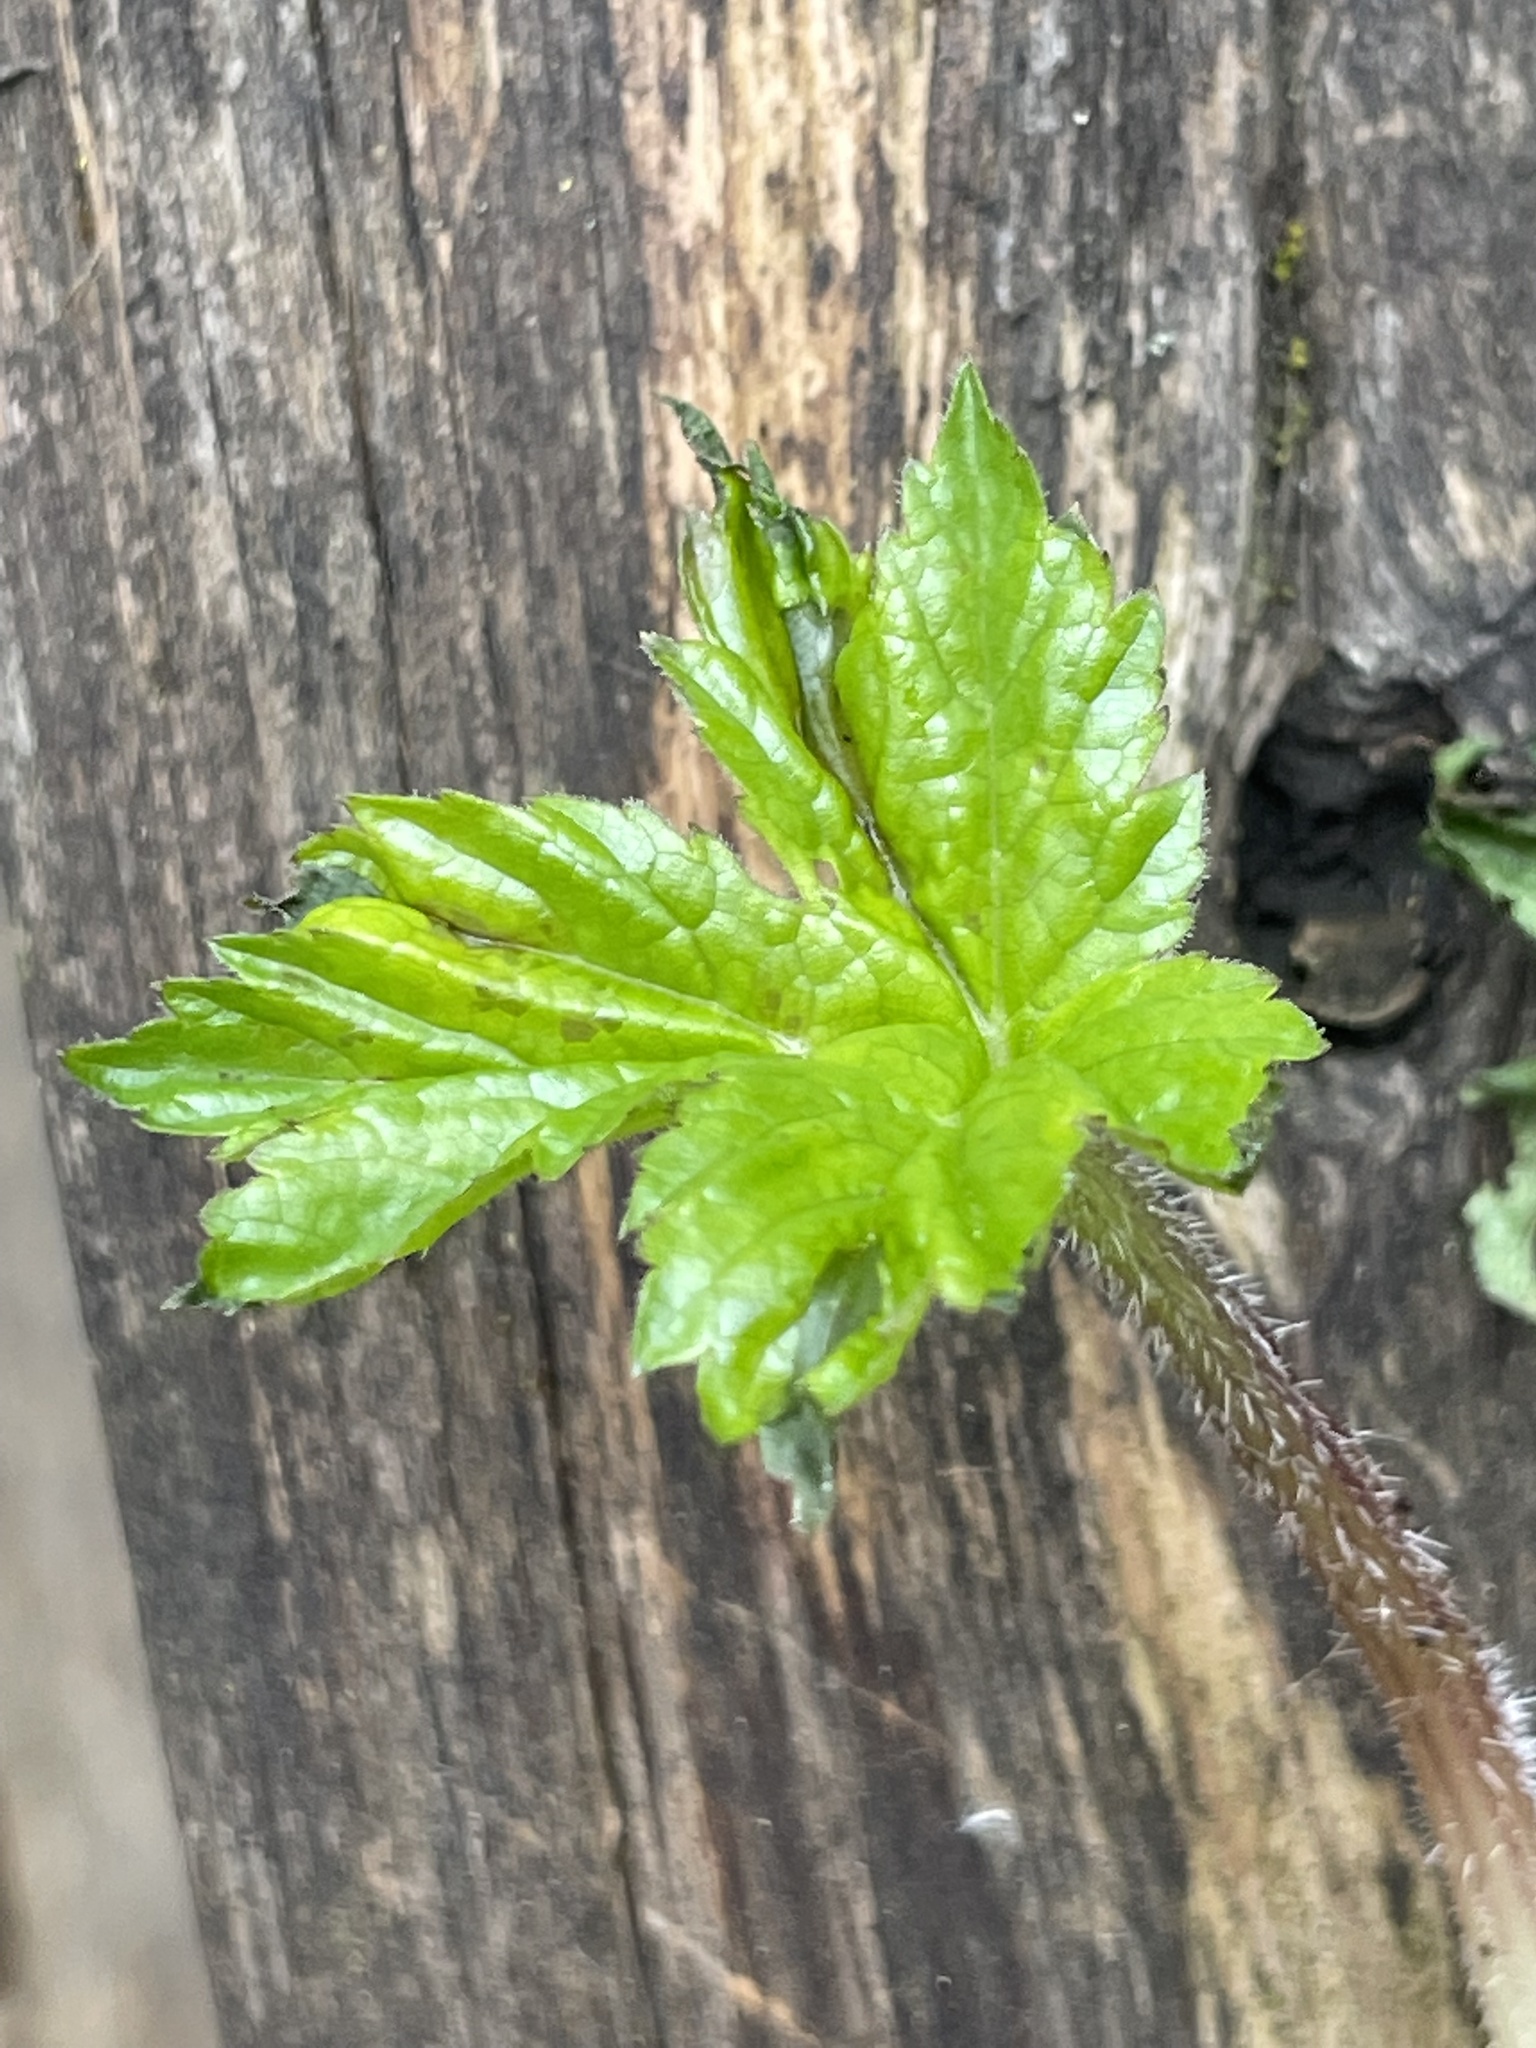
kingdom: Plantae
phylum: Tracheophyta
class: Magnoliopsida
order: Apiales
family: Apiaceae
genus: Heracleum
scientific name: Heracleum mantegazzianum
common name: Giant hogweed
